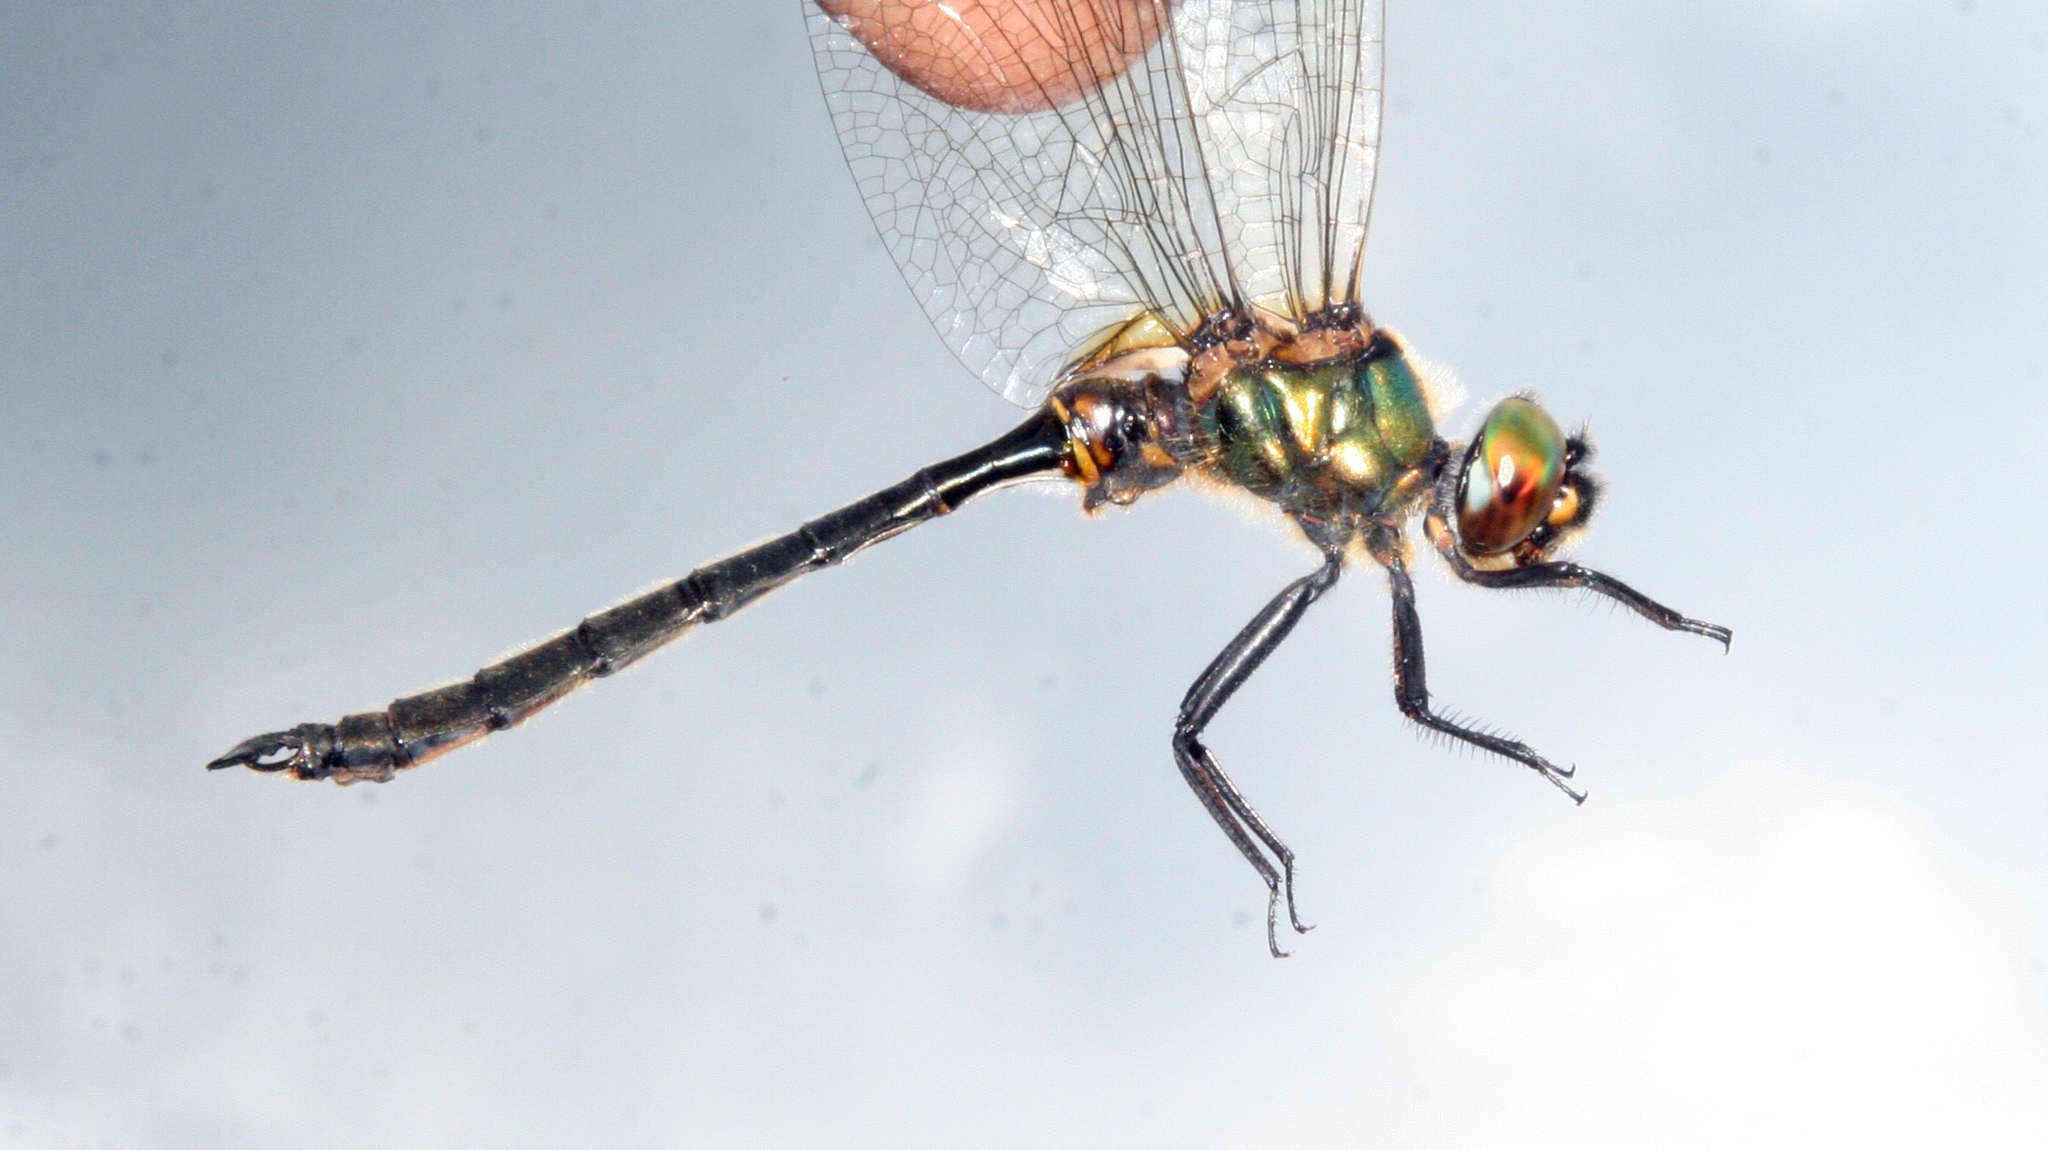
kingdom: Animalia
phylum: Arthropoda
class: Insecta
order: Odonata
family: Corduliidae
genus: Somatochlora
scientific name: Somatochlora arctica
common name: Northern emerald
